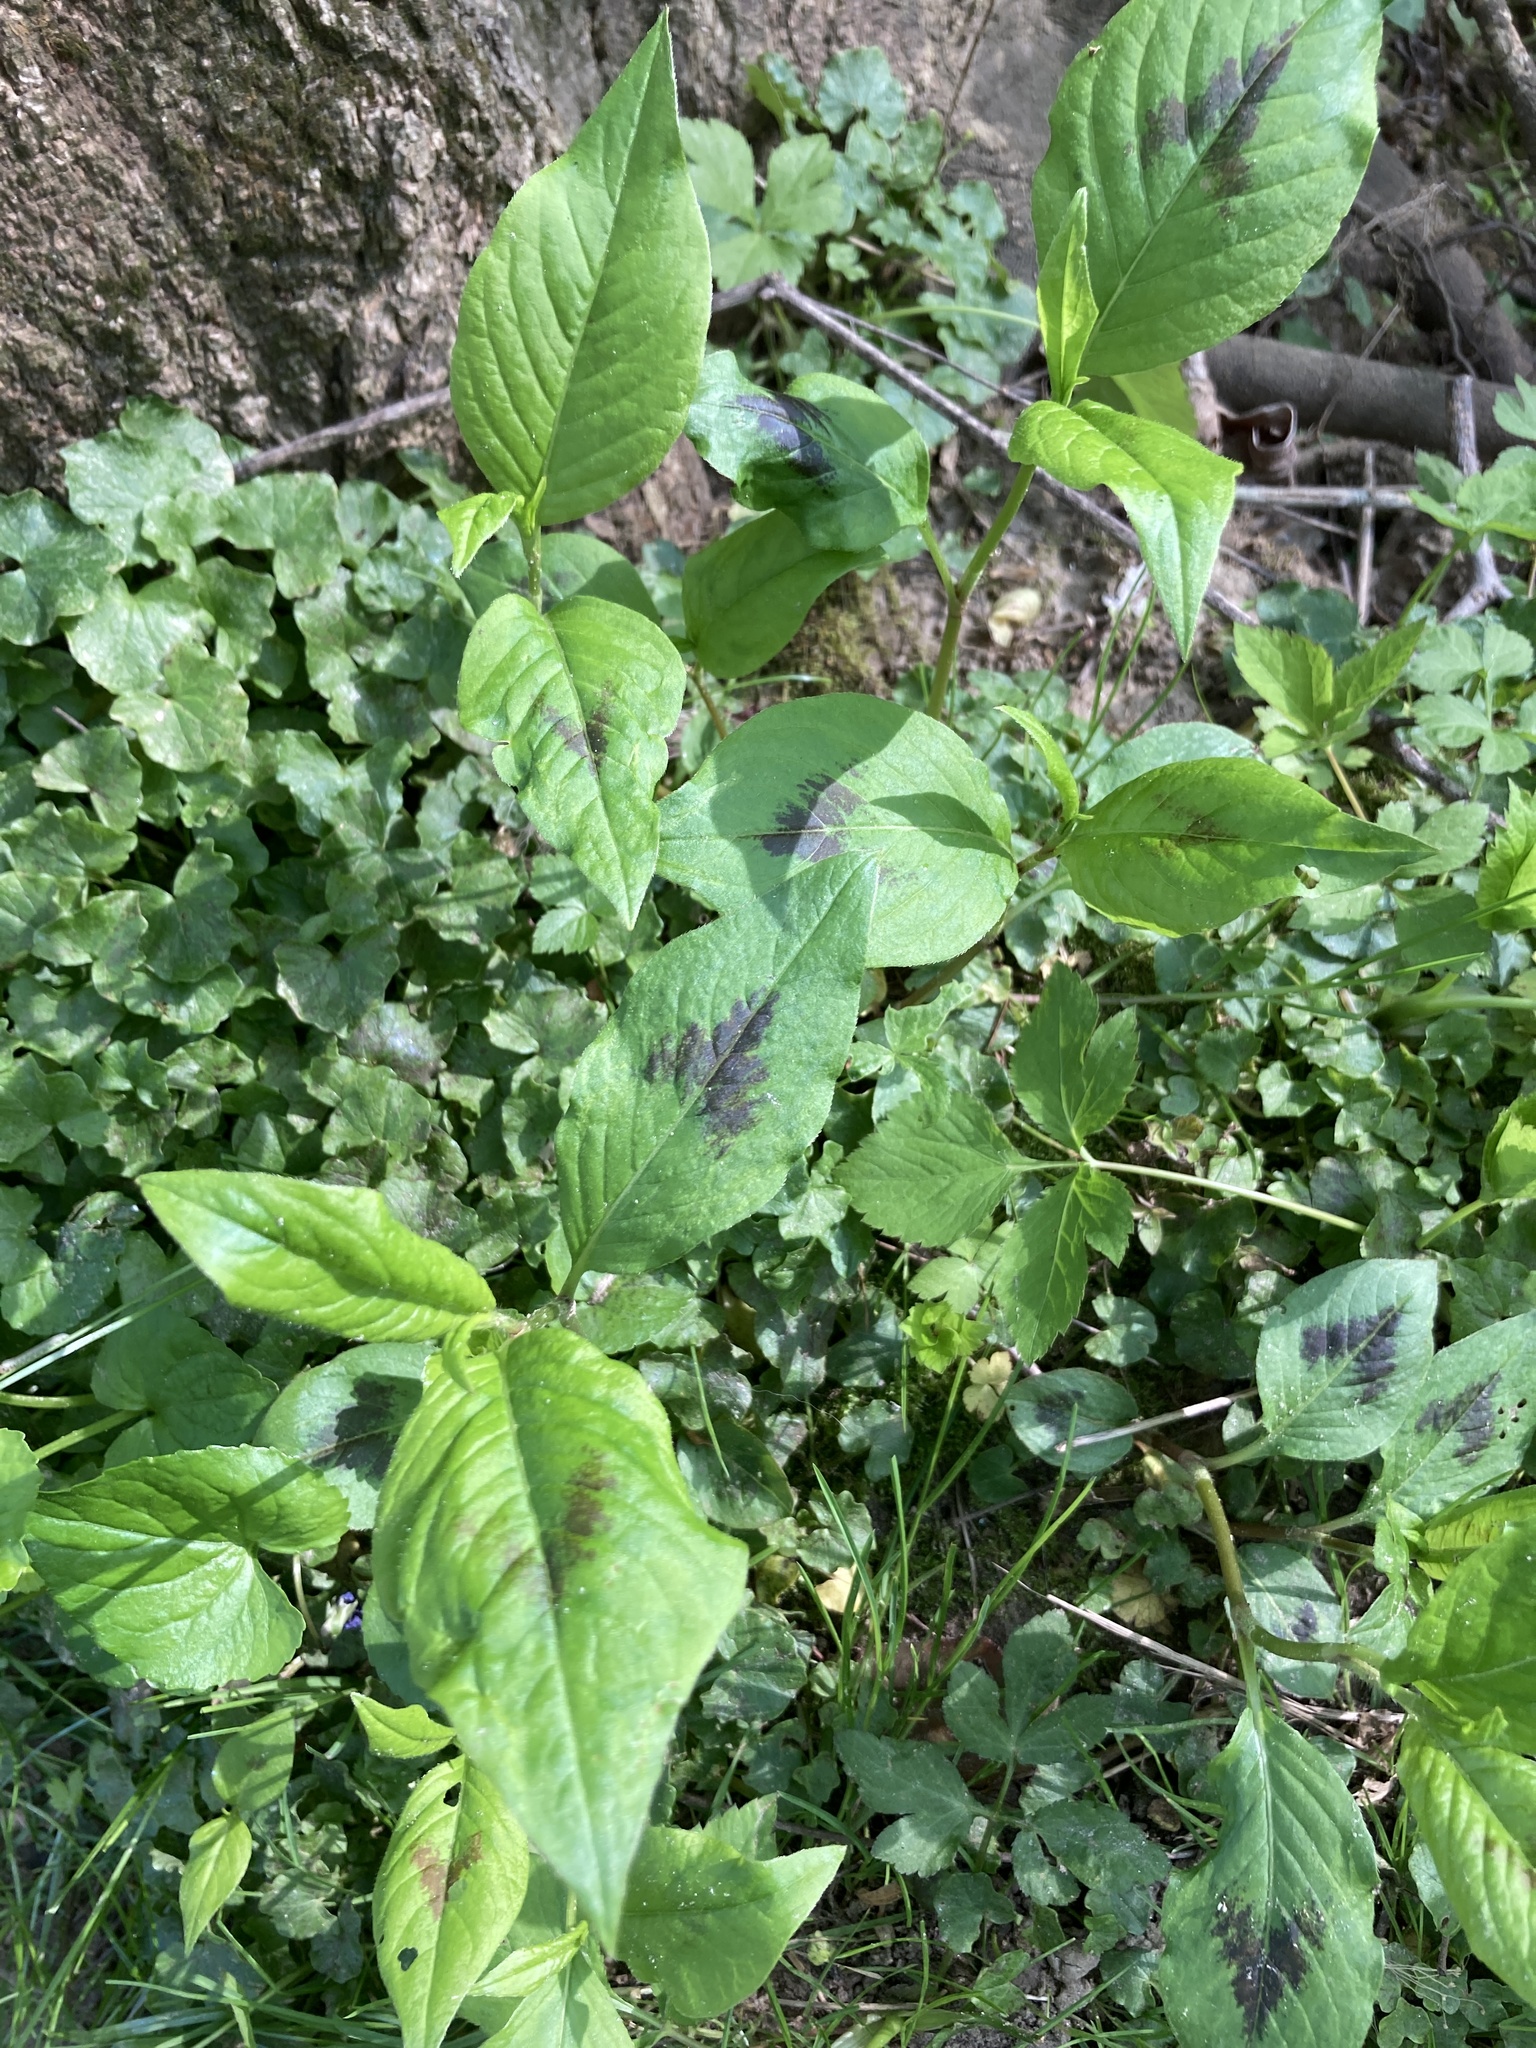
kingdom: Plantae
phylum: Tracheophyta
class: Magnoliopsida
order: Caryophyllales
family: Polygonaceae
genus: Persicaria
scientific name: Persicaria virginiana
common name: Jumpseed
